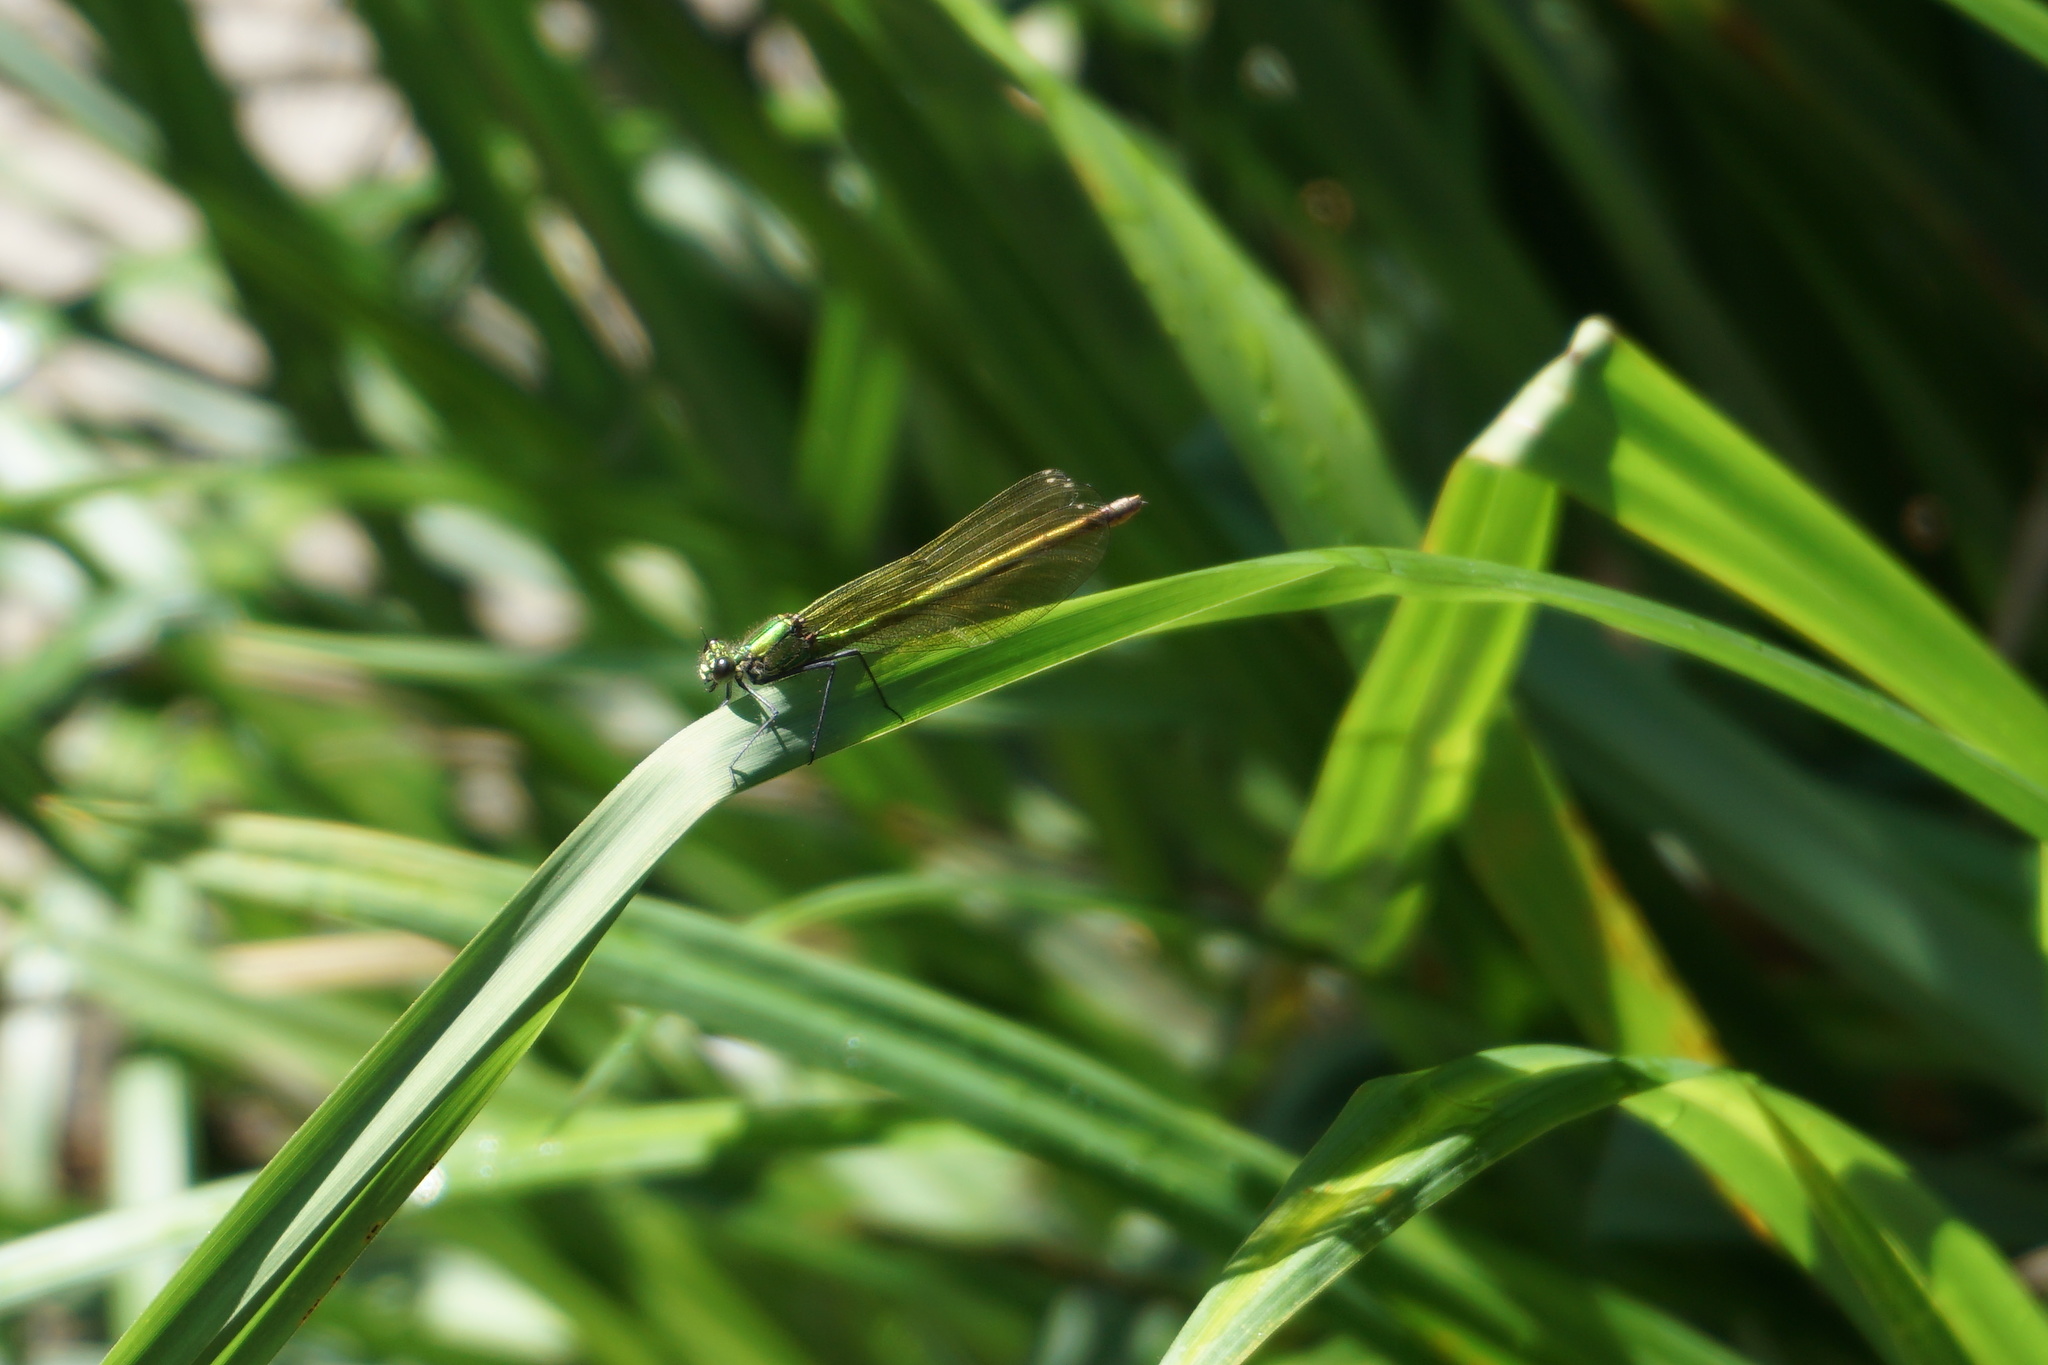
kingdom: Animalia
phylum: Arthropoda
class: Insecta
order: Odonata
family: Calopterygidae
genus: Calopteryx
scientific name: Calopteryx splendens
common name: Banded demoiselle
